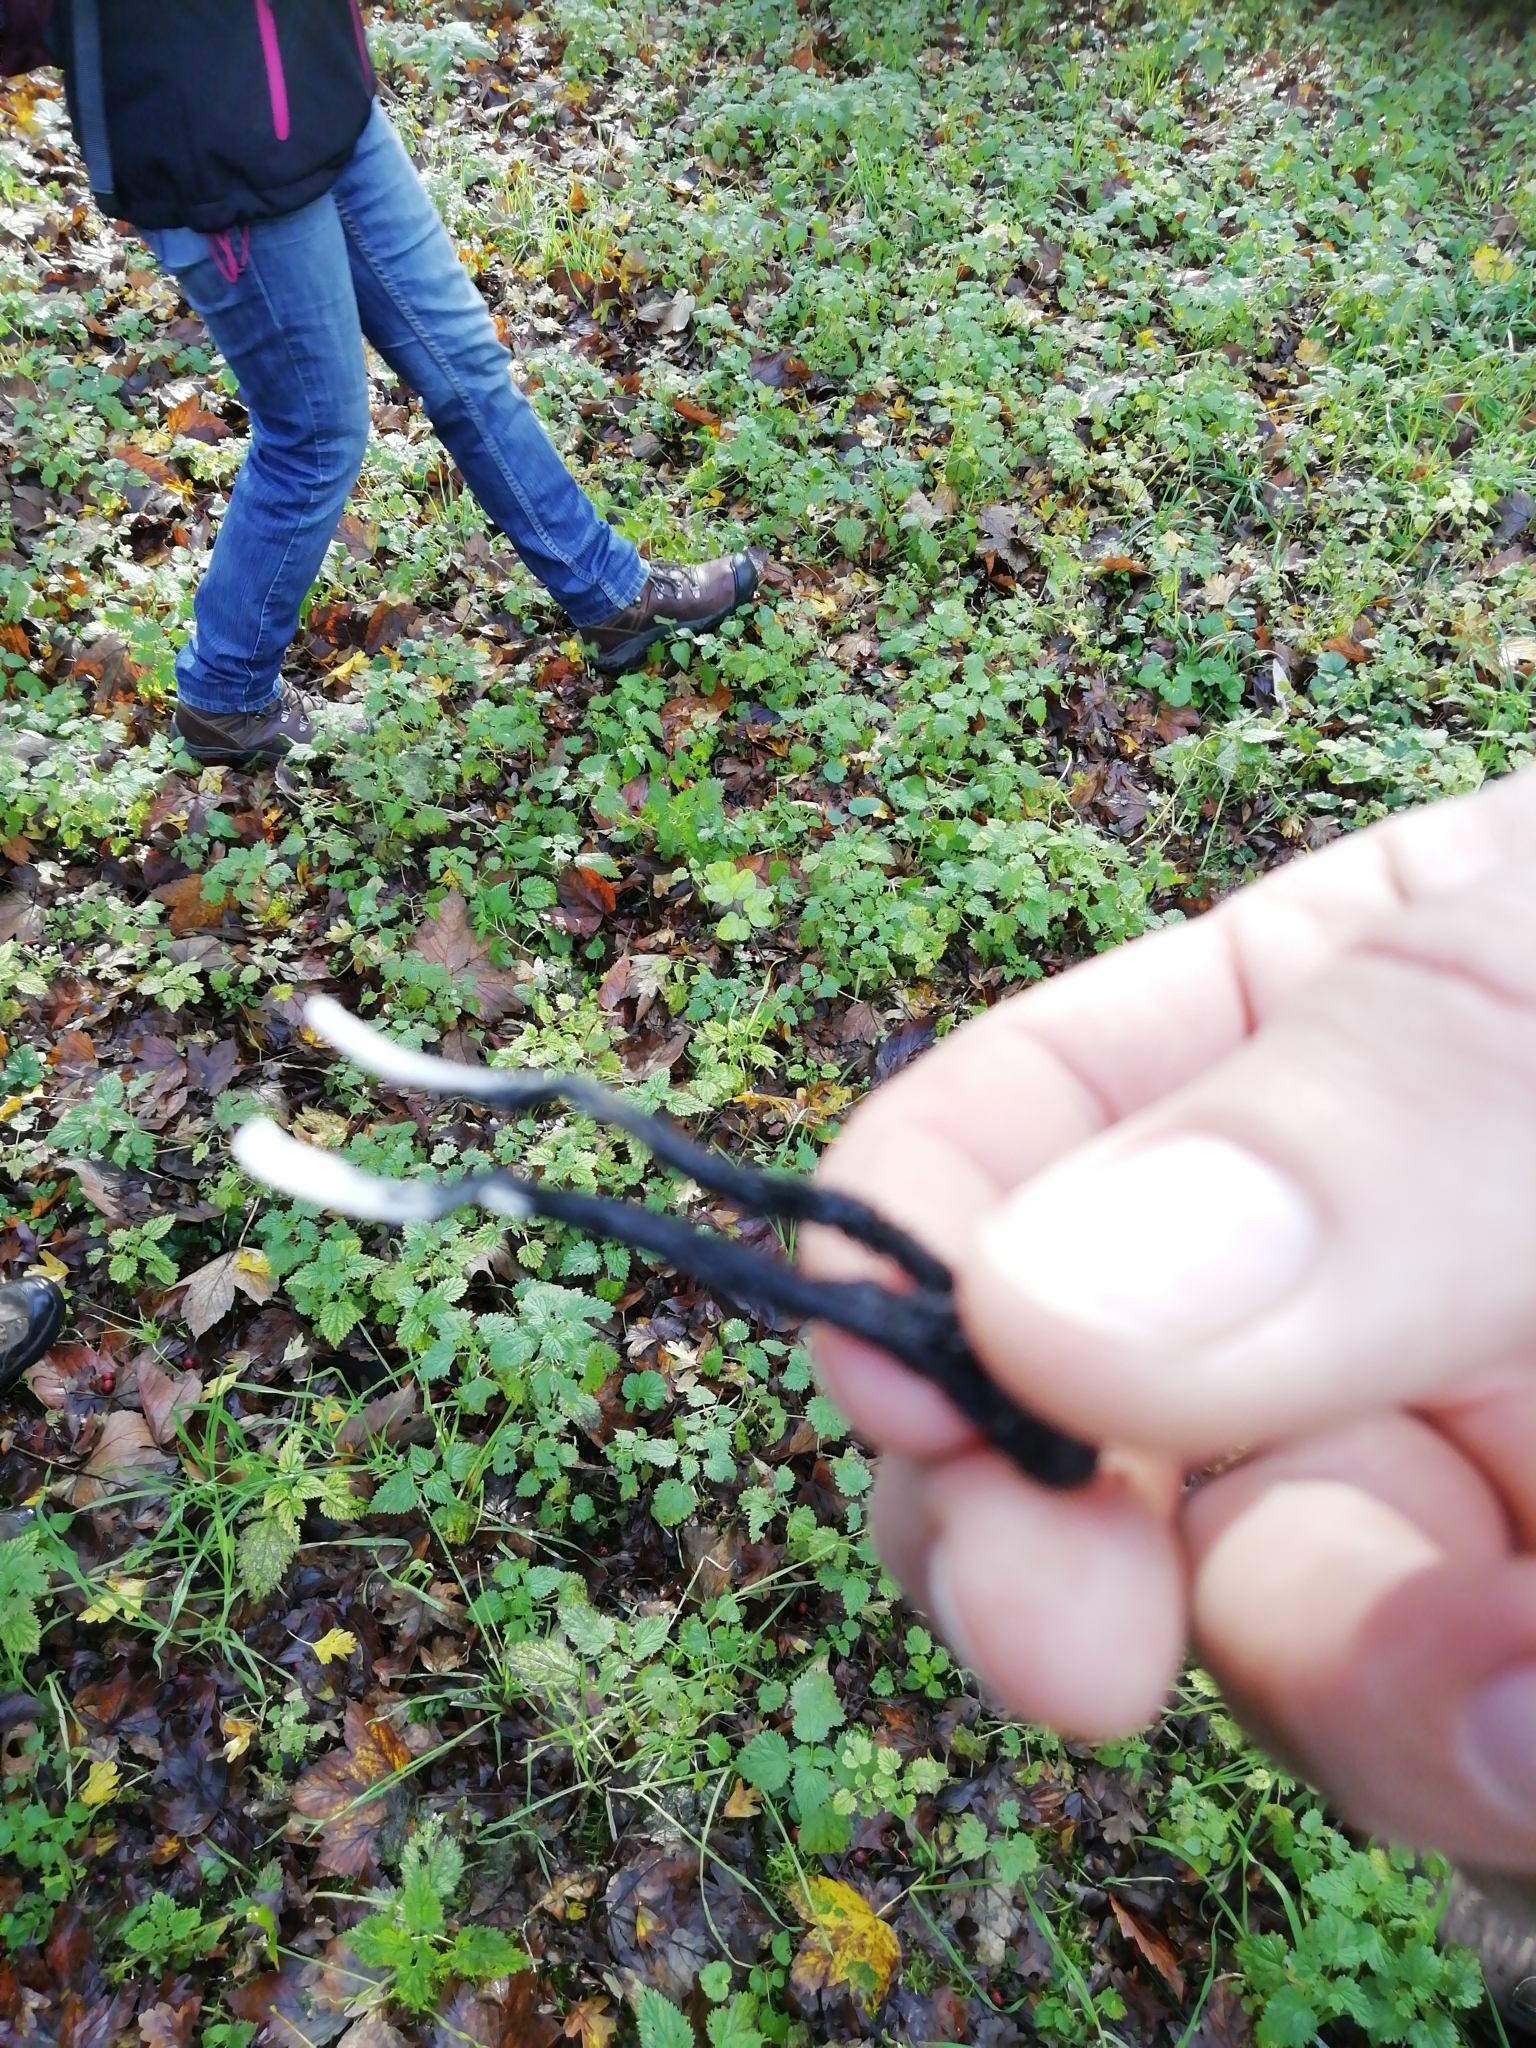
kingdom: Fungi
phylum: Ascomycota
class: Sordariomycetes
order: Xylariales
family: Xylariaceae
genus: Xylaria
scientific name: Xylaria hypoxylon
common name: Candle-snuff fungus
